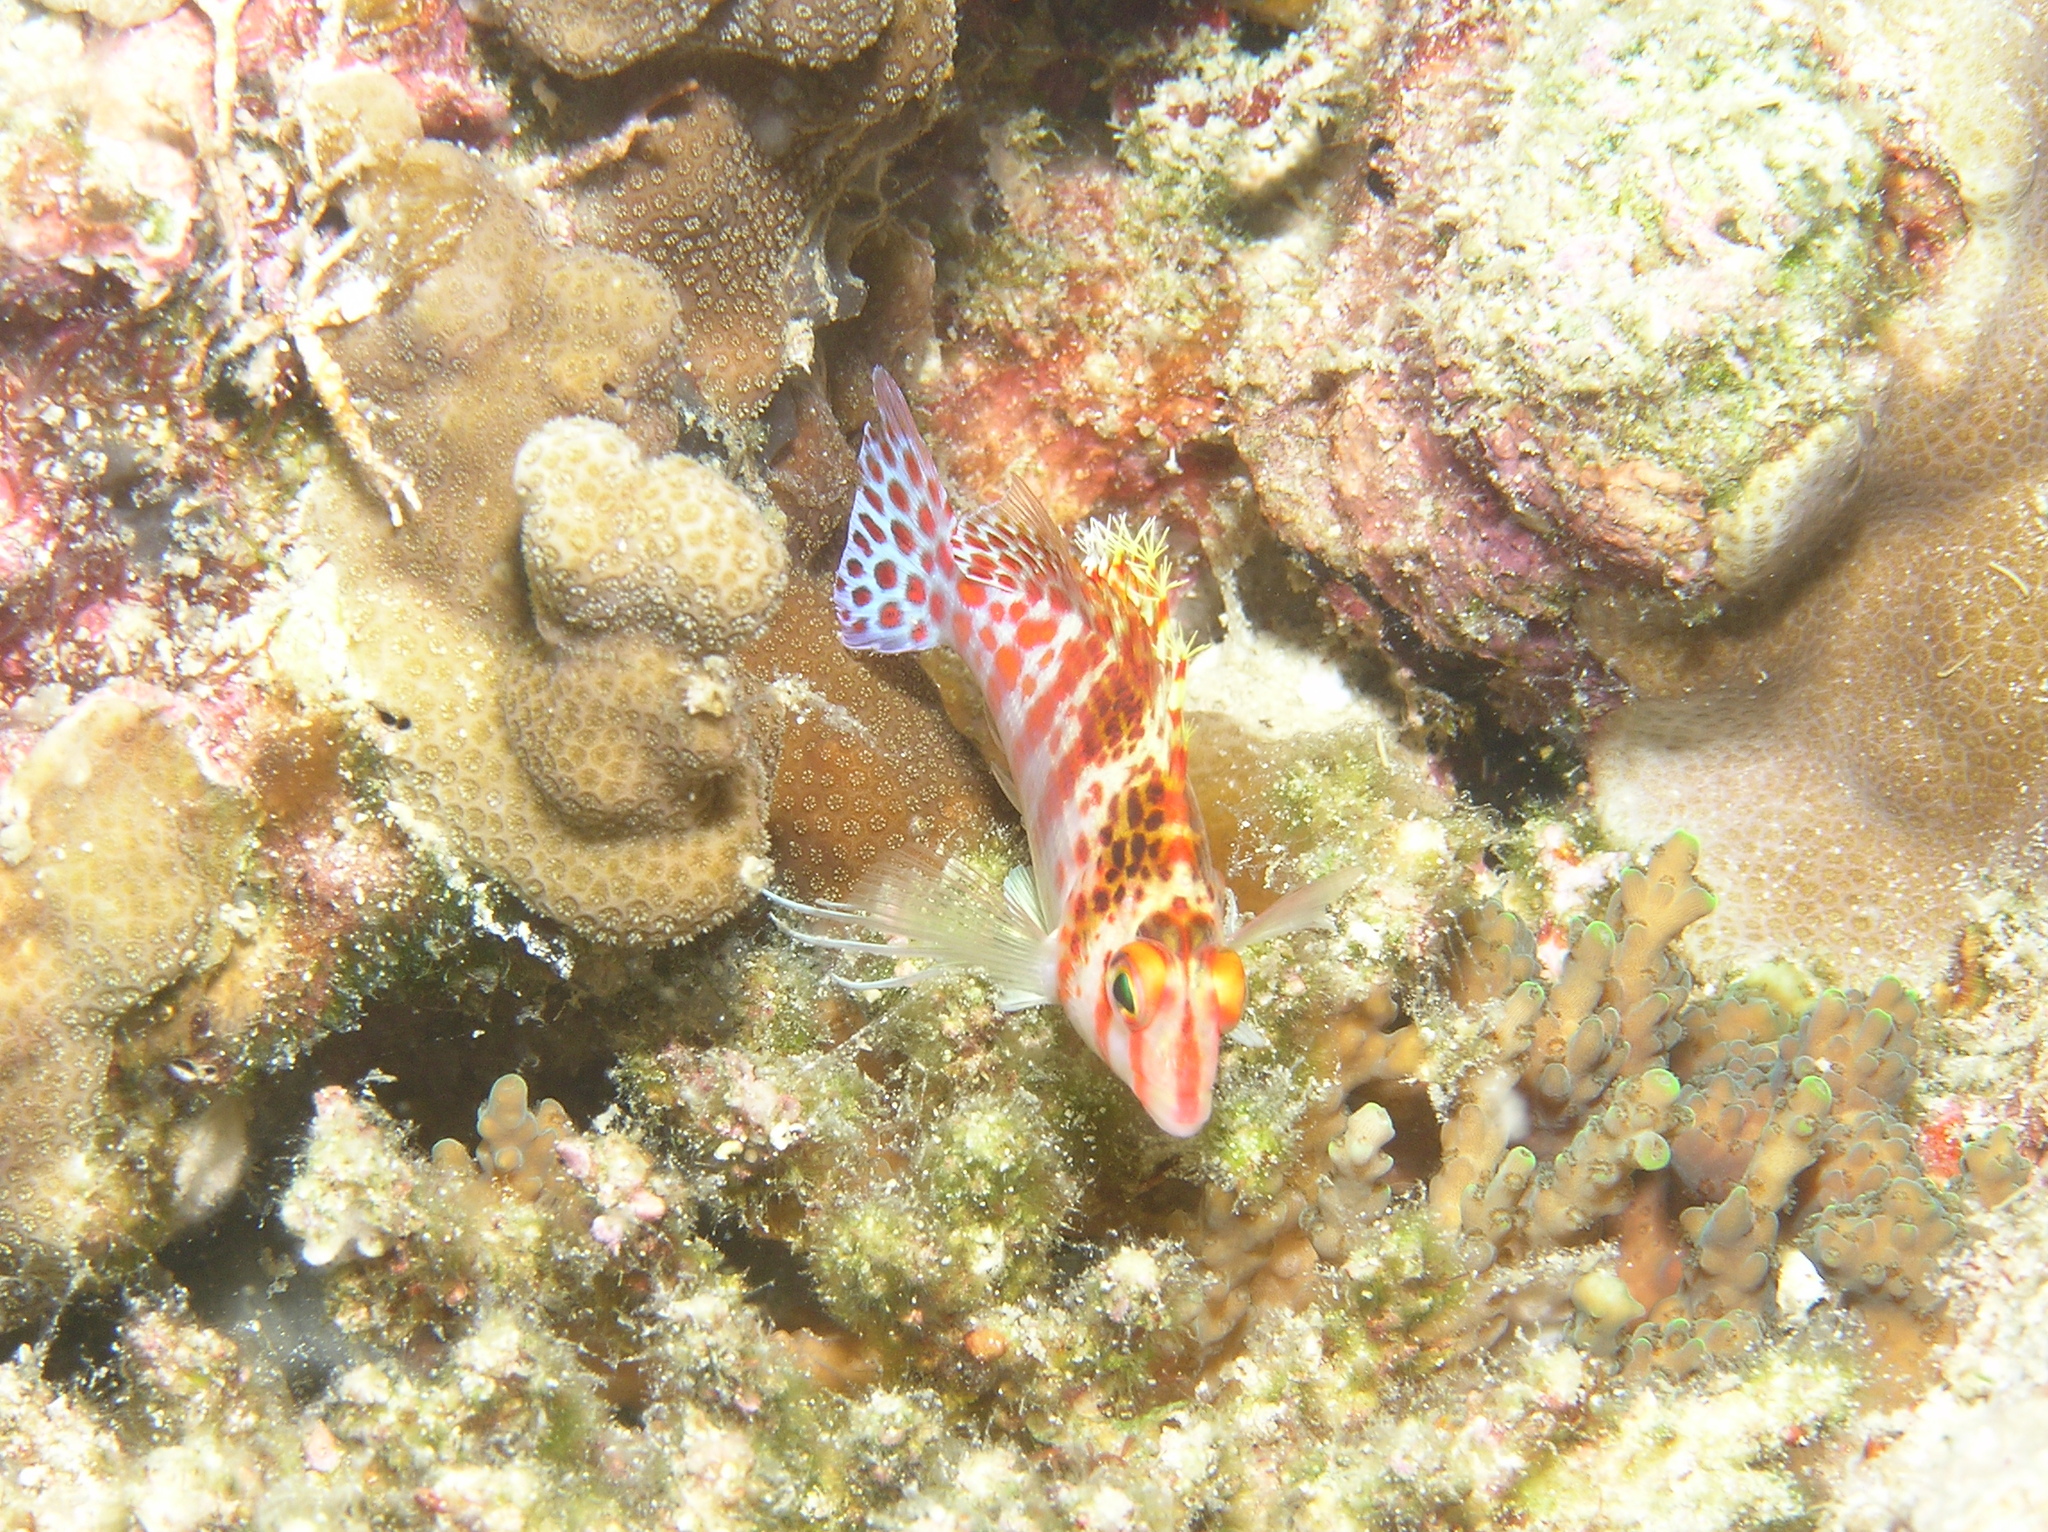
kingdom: Animalia
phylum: Chordata
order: Perciformes
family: Cirrhitidae
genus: Cirrhitichthys
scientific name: Cirrhitichthys falco
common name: Coral hawkfish
